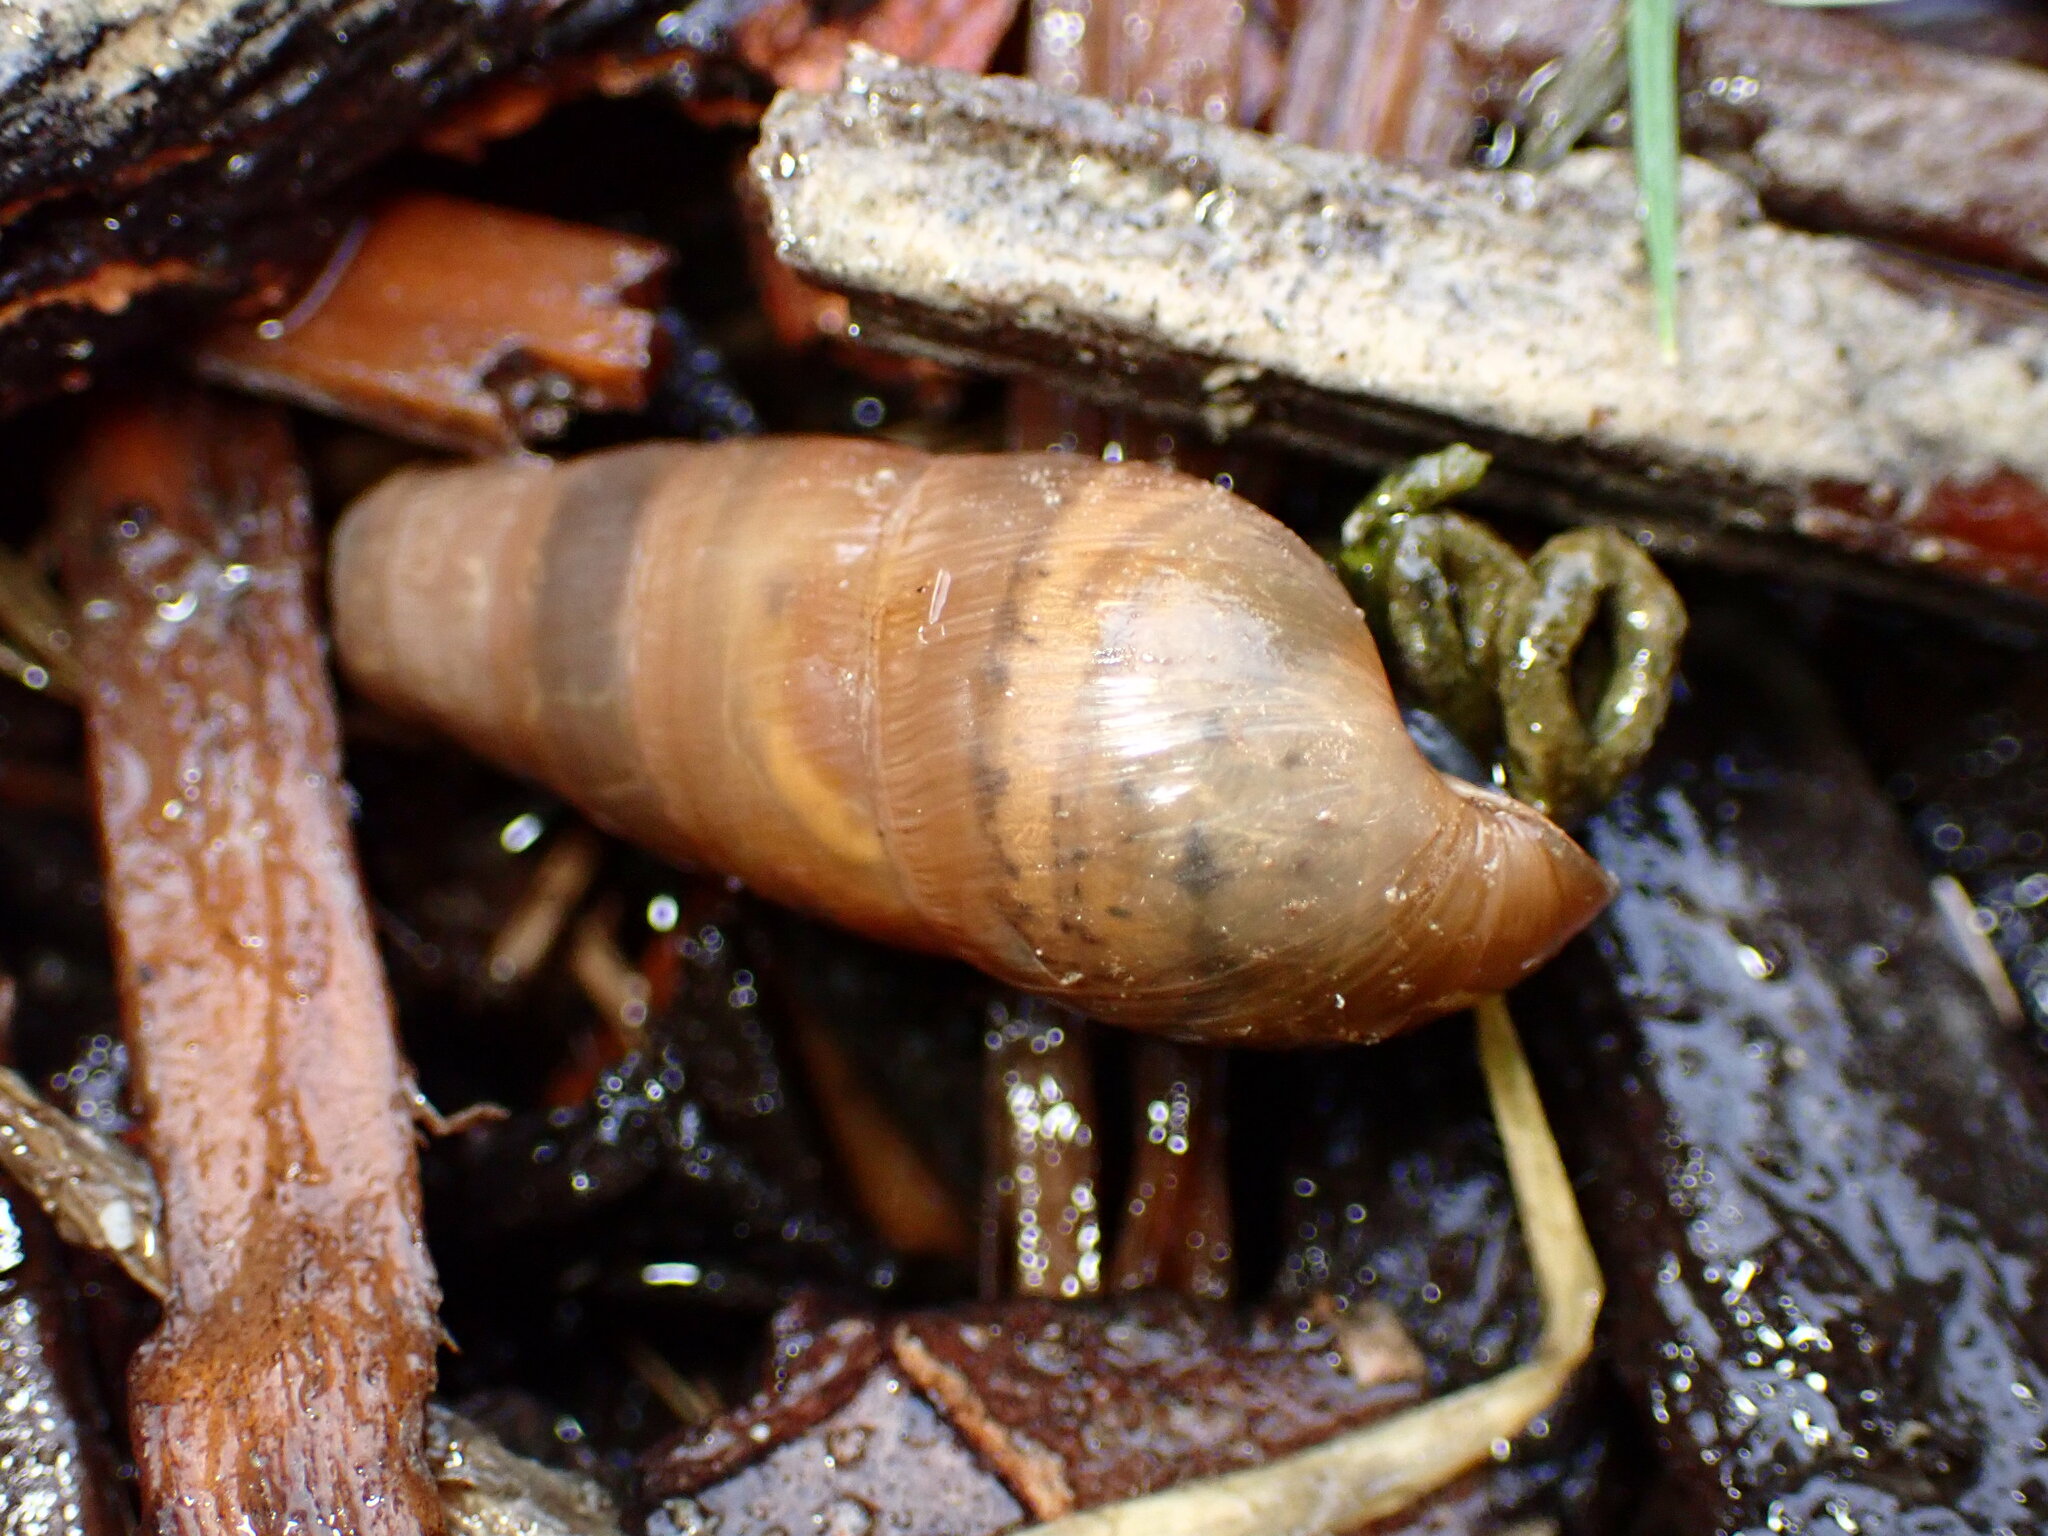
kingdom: Animalia
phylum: Mollusca
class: Gastropoda
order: Stylommatophora
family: Achatinidae
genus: Rumina
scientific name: Rumina decollata
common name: Decollate snail
